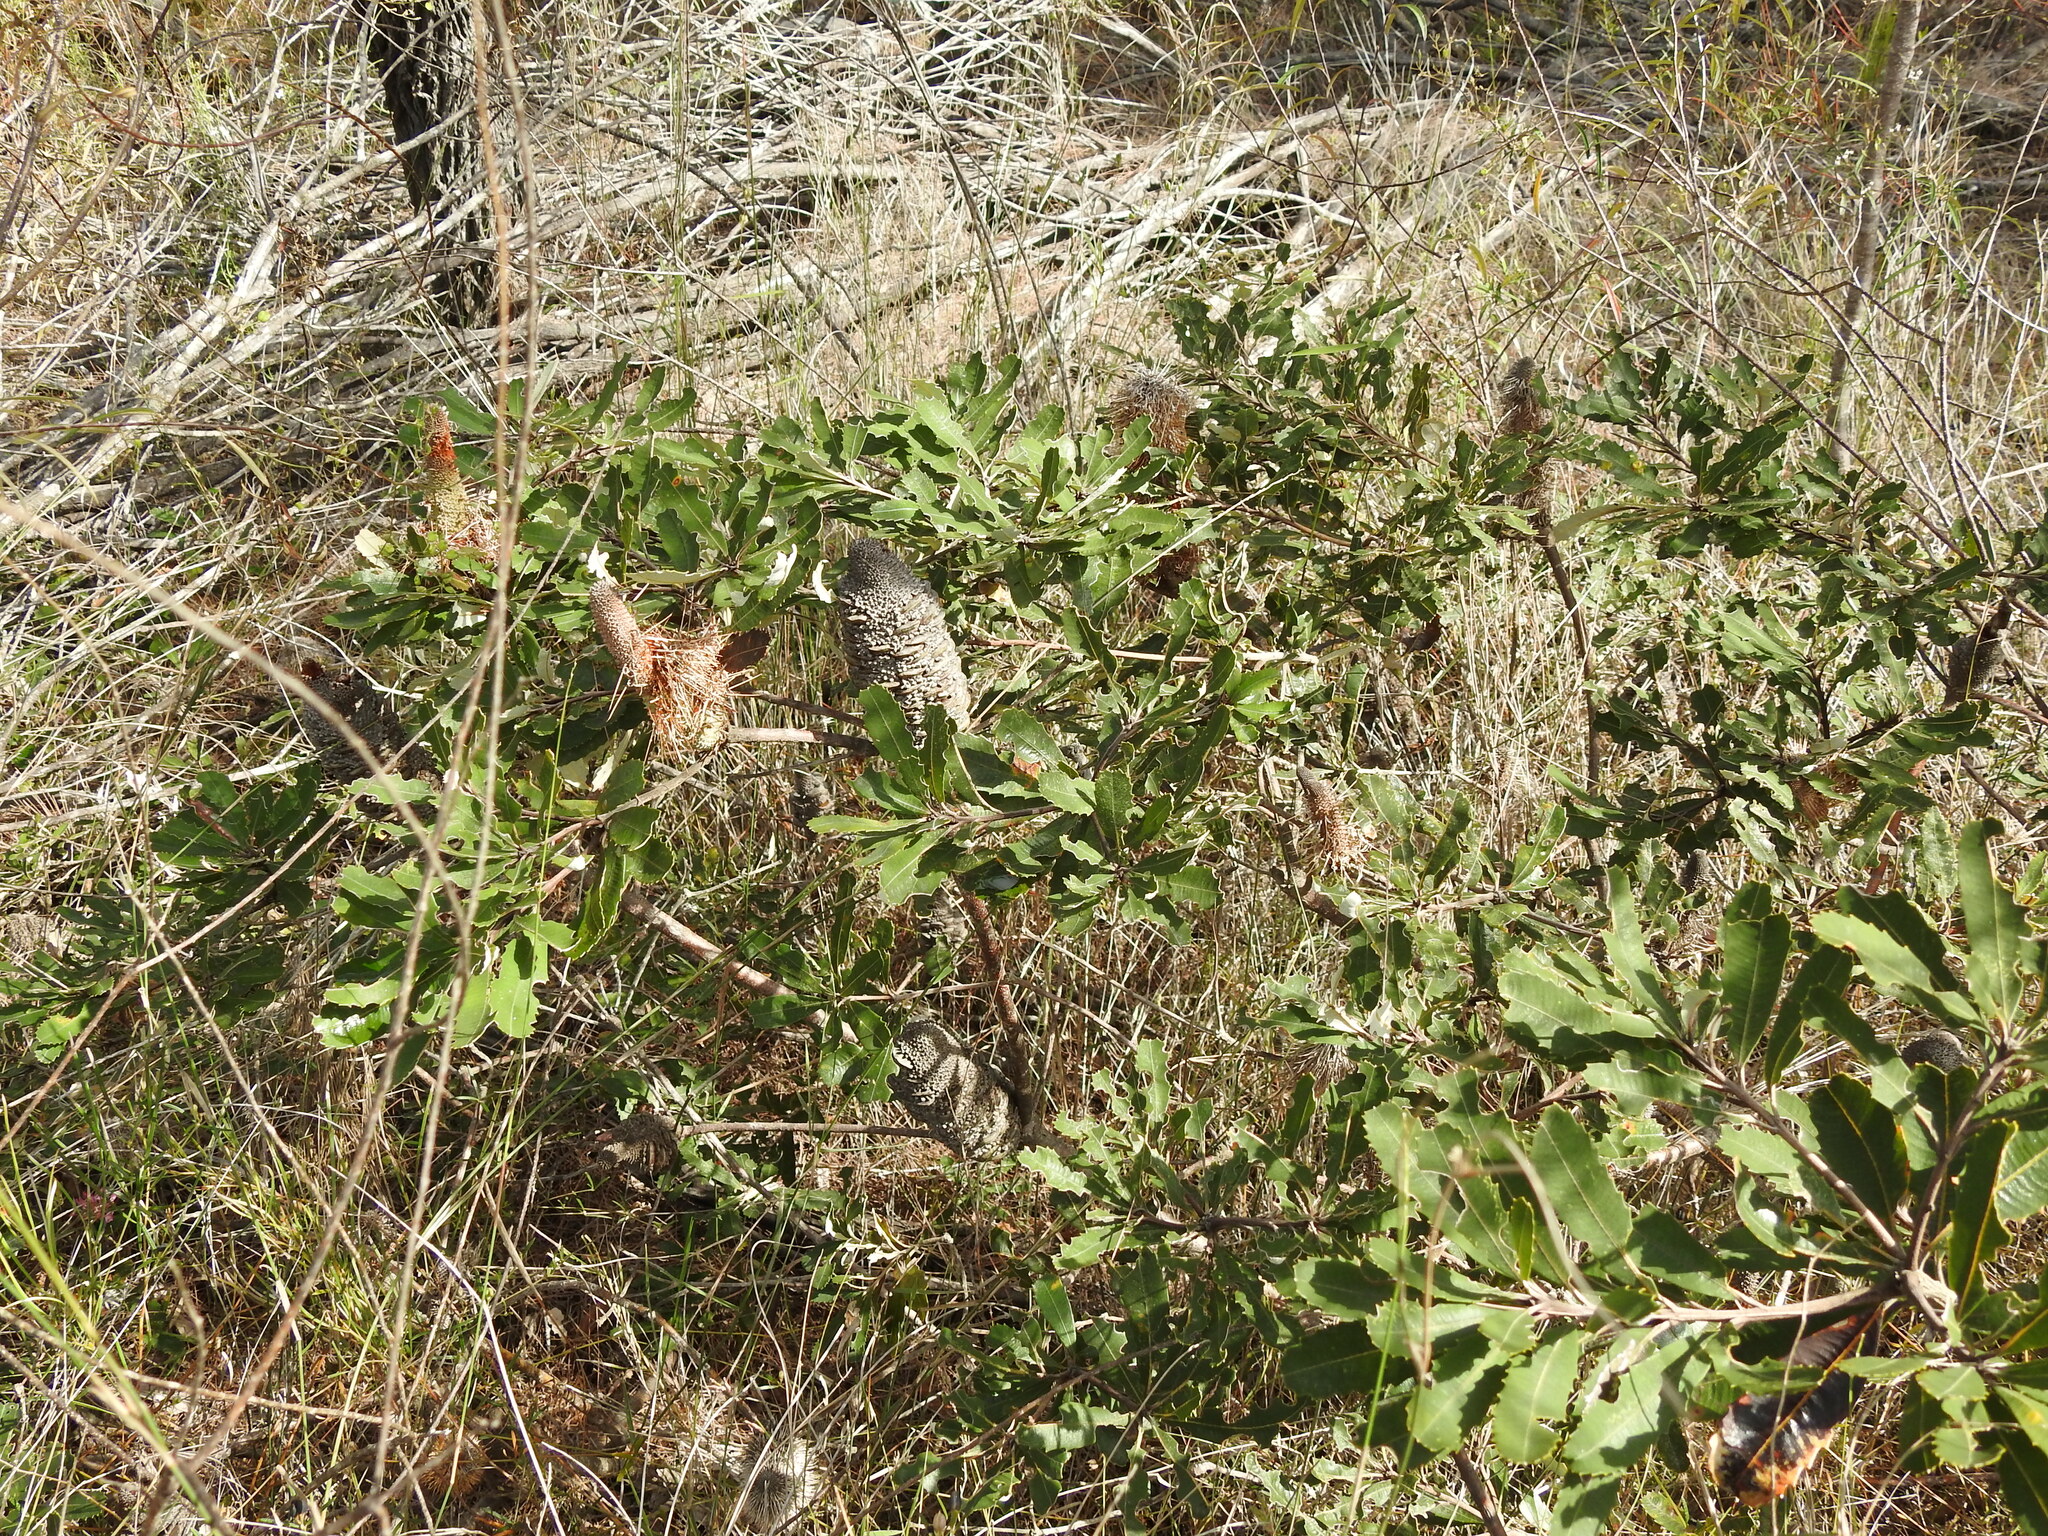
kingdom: Plantae
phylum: Tracheophyta
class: Magnoliopsida
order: Proteales
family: Proteaceae
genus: Banksia
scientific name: Banksia oblongifolia
